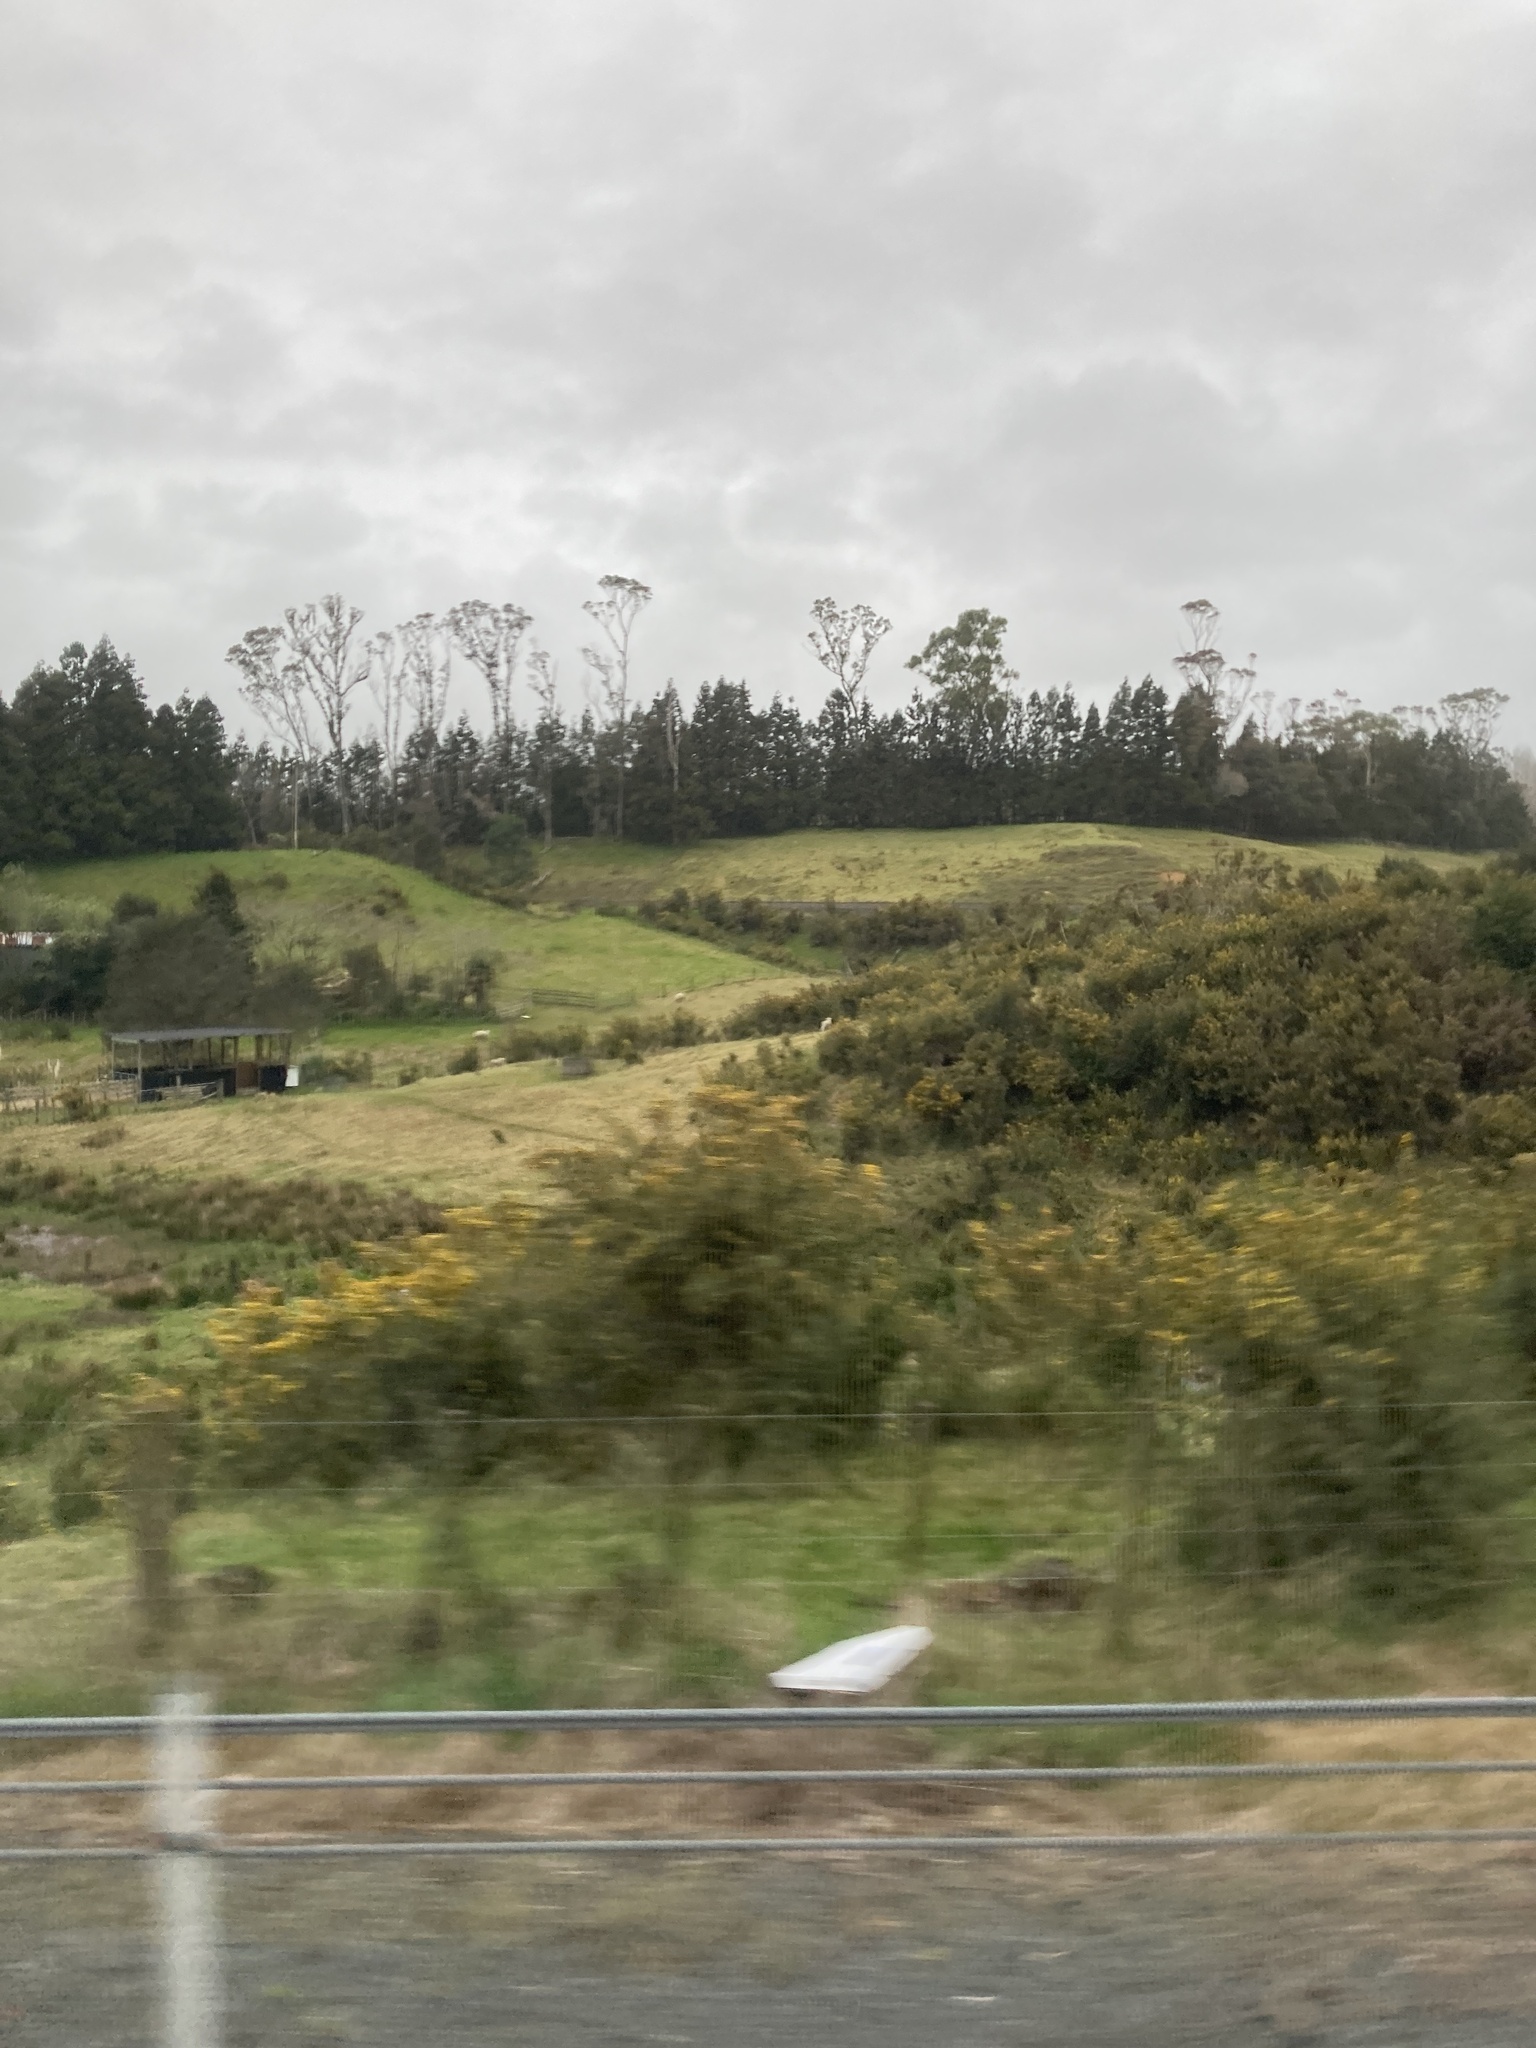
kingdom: Plantae
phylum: Tracheophyta
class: Magnoliopsida
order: Fabales
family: Fabaceae
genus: Ulex
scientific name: Ulex europaeus
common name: Common gorse
